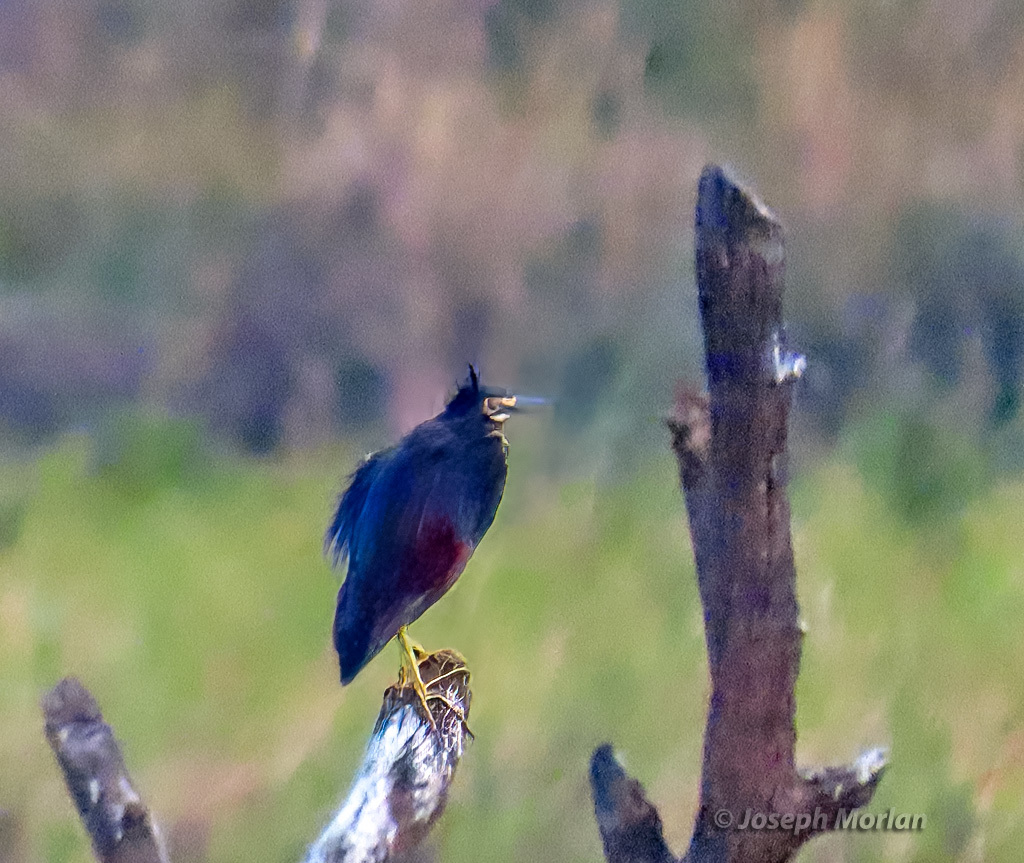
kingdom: Animalia
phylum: Chordata
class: Aves
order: Pelecaniformes
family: Ardeidae
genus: Ardeola
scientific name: Ardeola rufiventris
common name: Rufous-bellied heron
